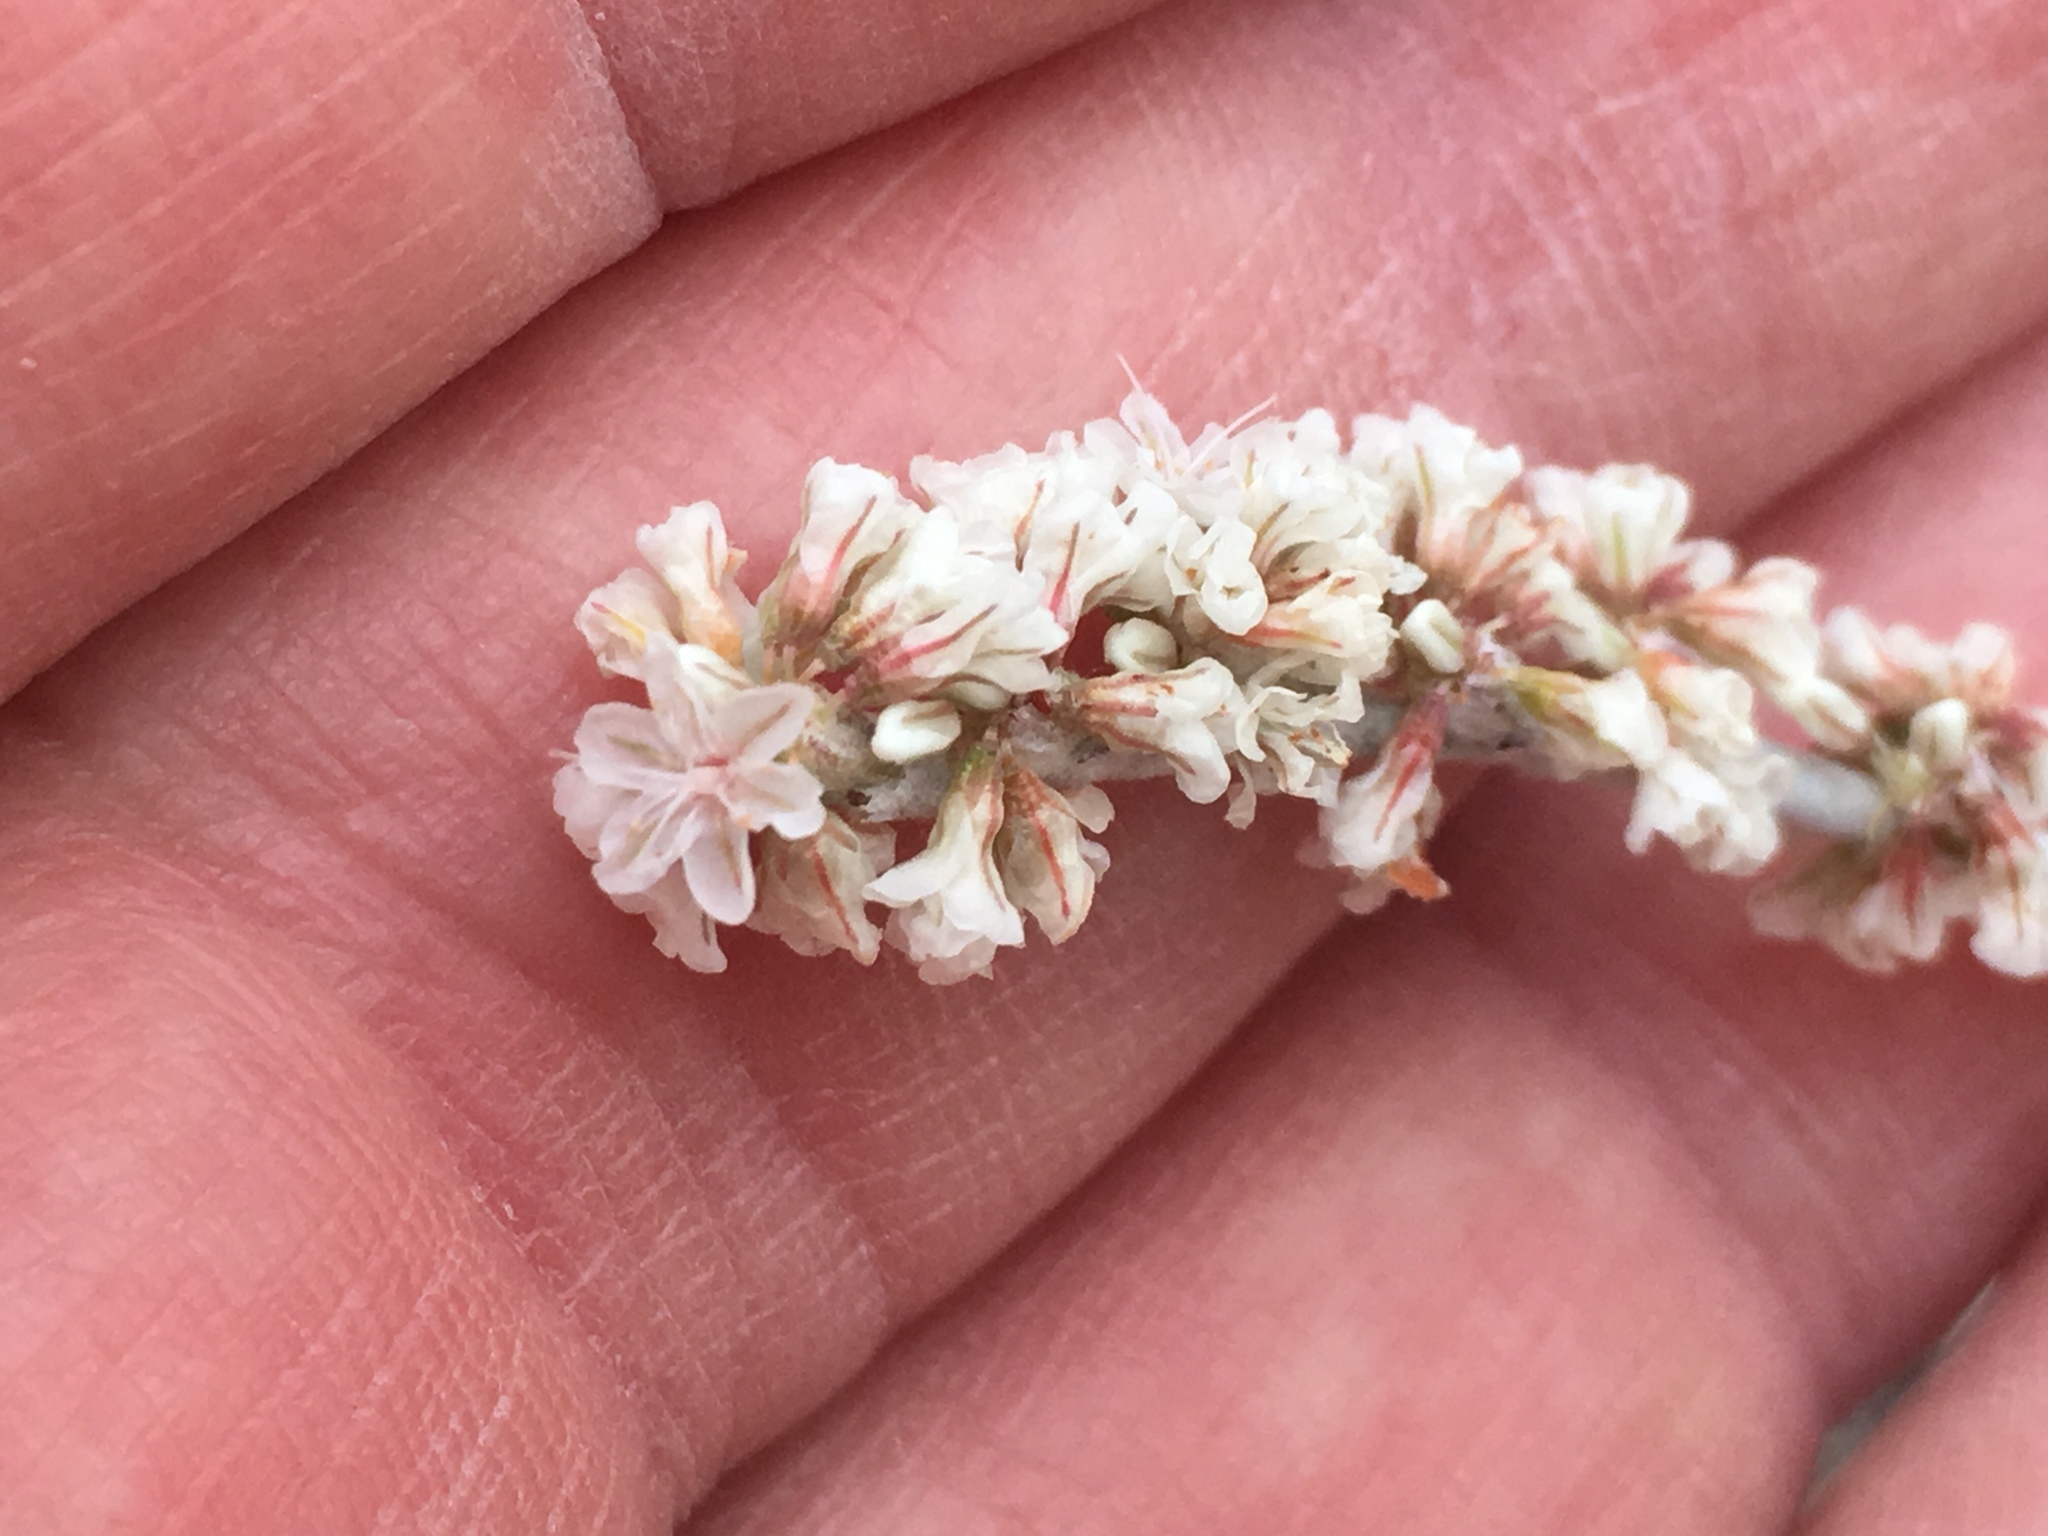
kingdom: Plantae
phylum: Tracheophyta
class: Magnoliopsida
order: Caryophyllales
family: Polygonaceae
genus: Eriogonum
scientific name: Eriogonum wrightii
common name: Bastard-sage
